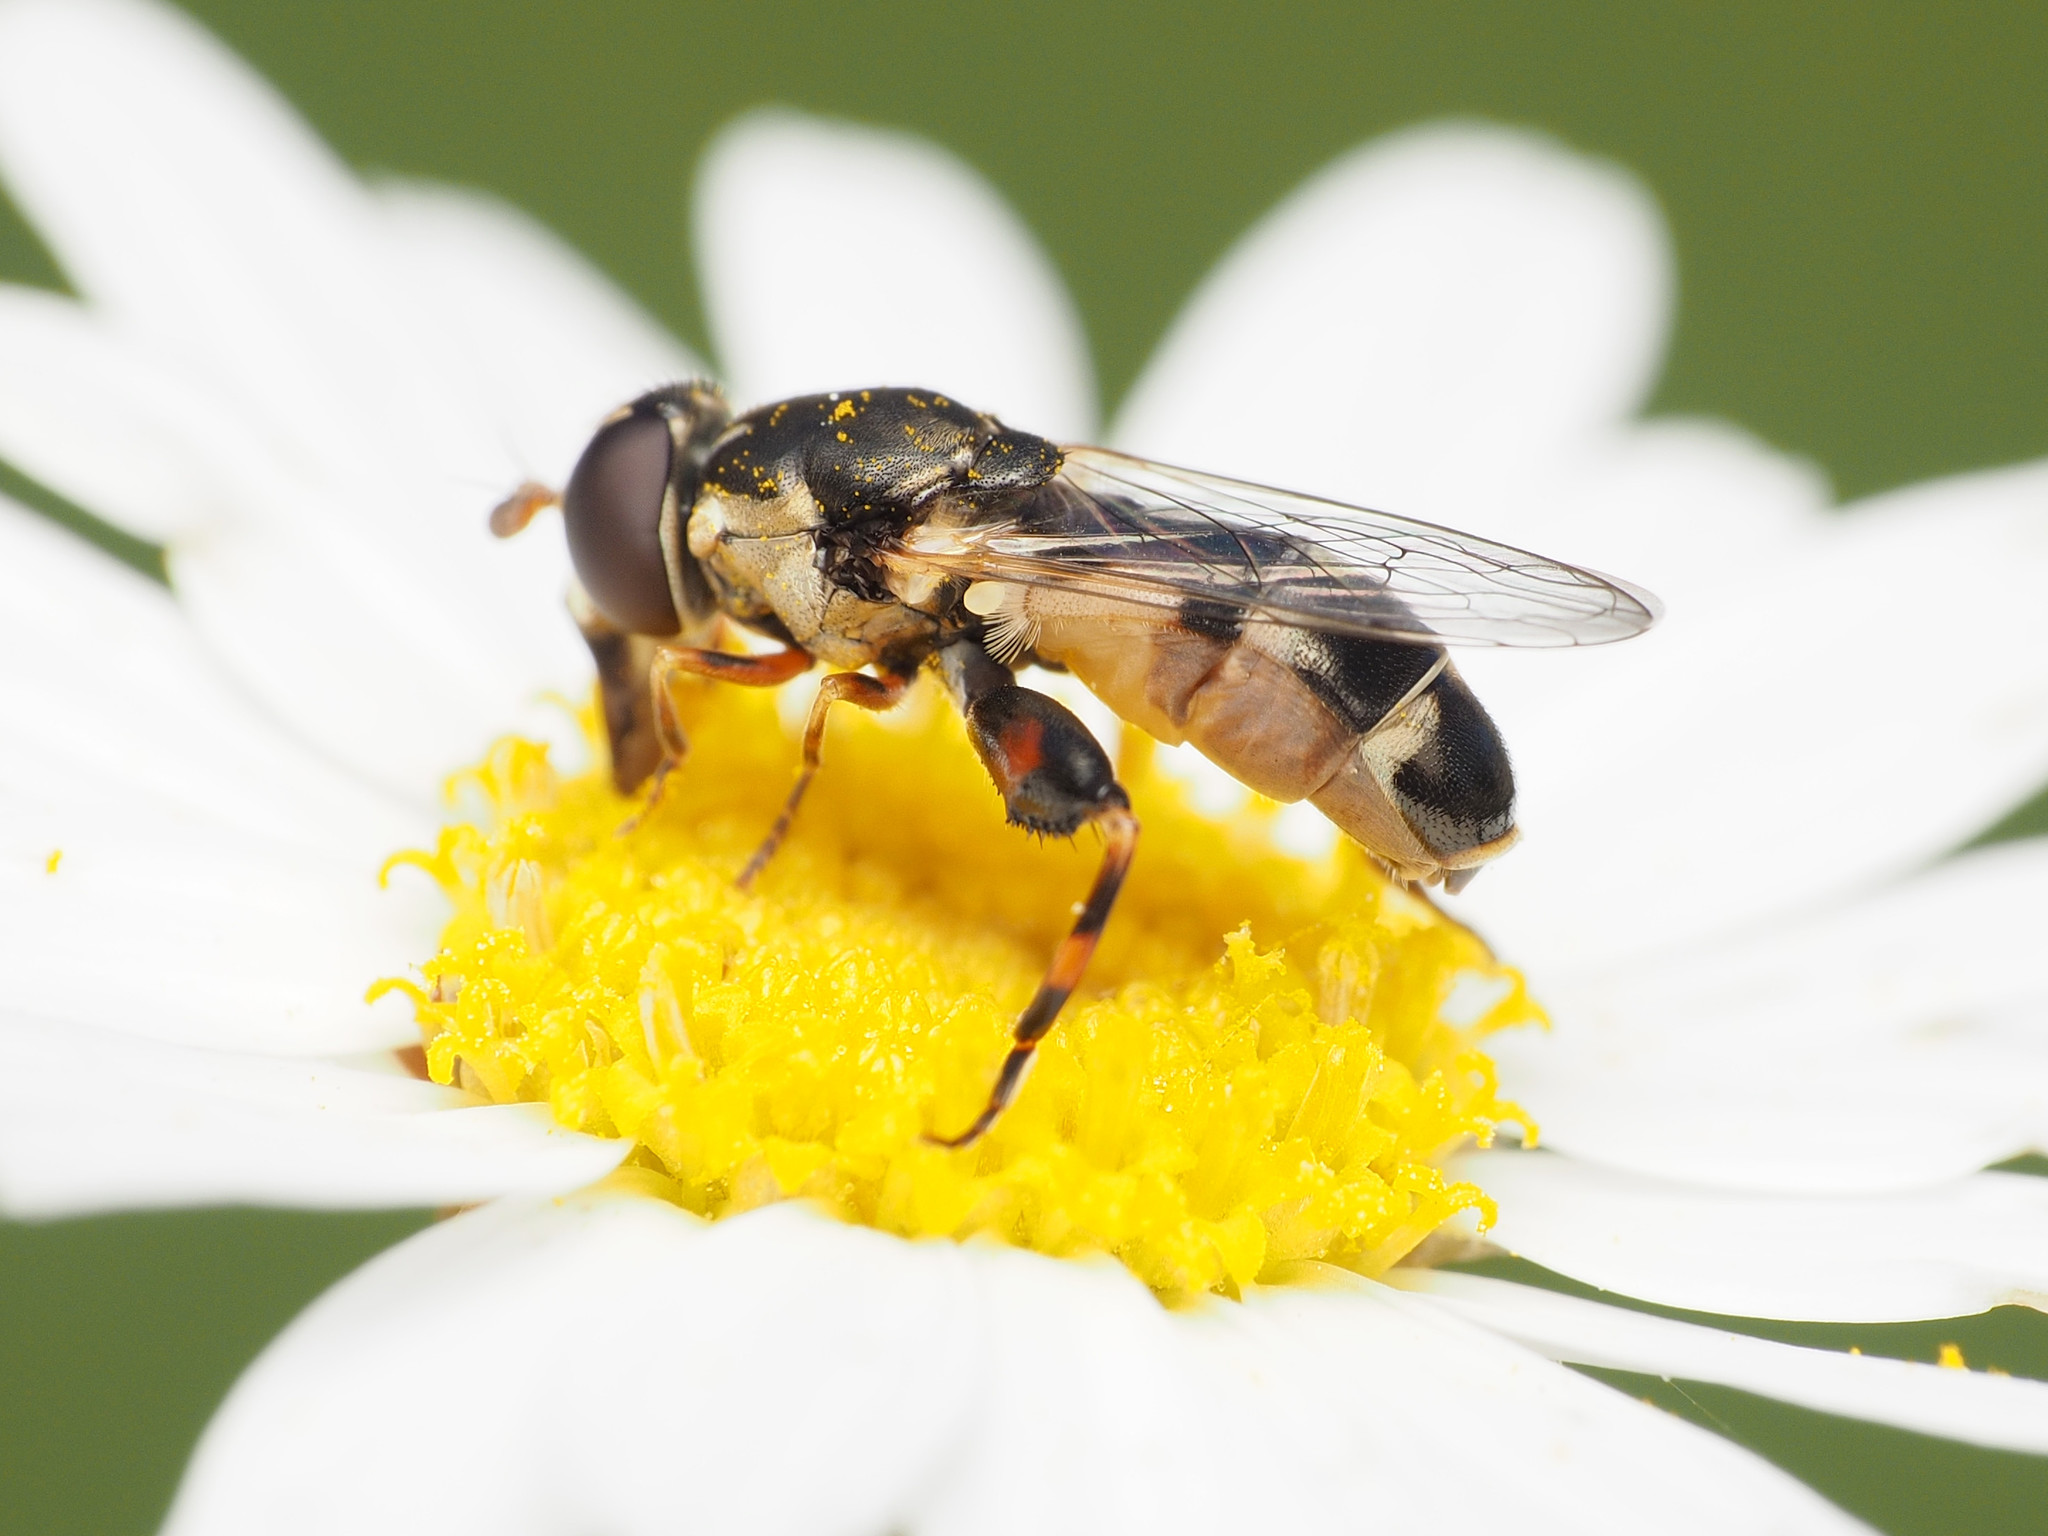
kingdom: Animalia
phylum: Arthropoda
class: Insecta
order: Diptera
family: Syrphidae
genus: Syritta
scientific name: Syritta pipiens
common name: Hover fly
